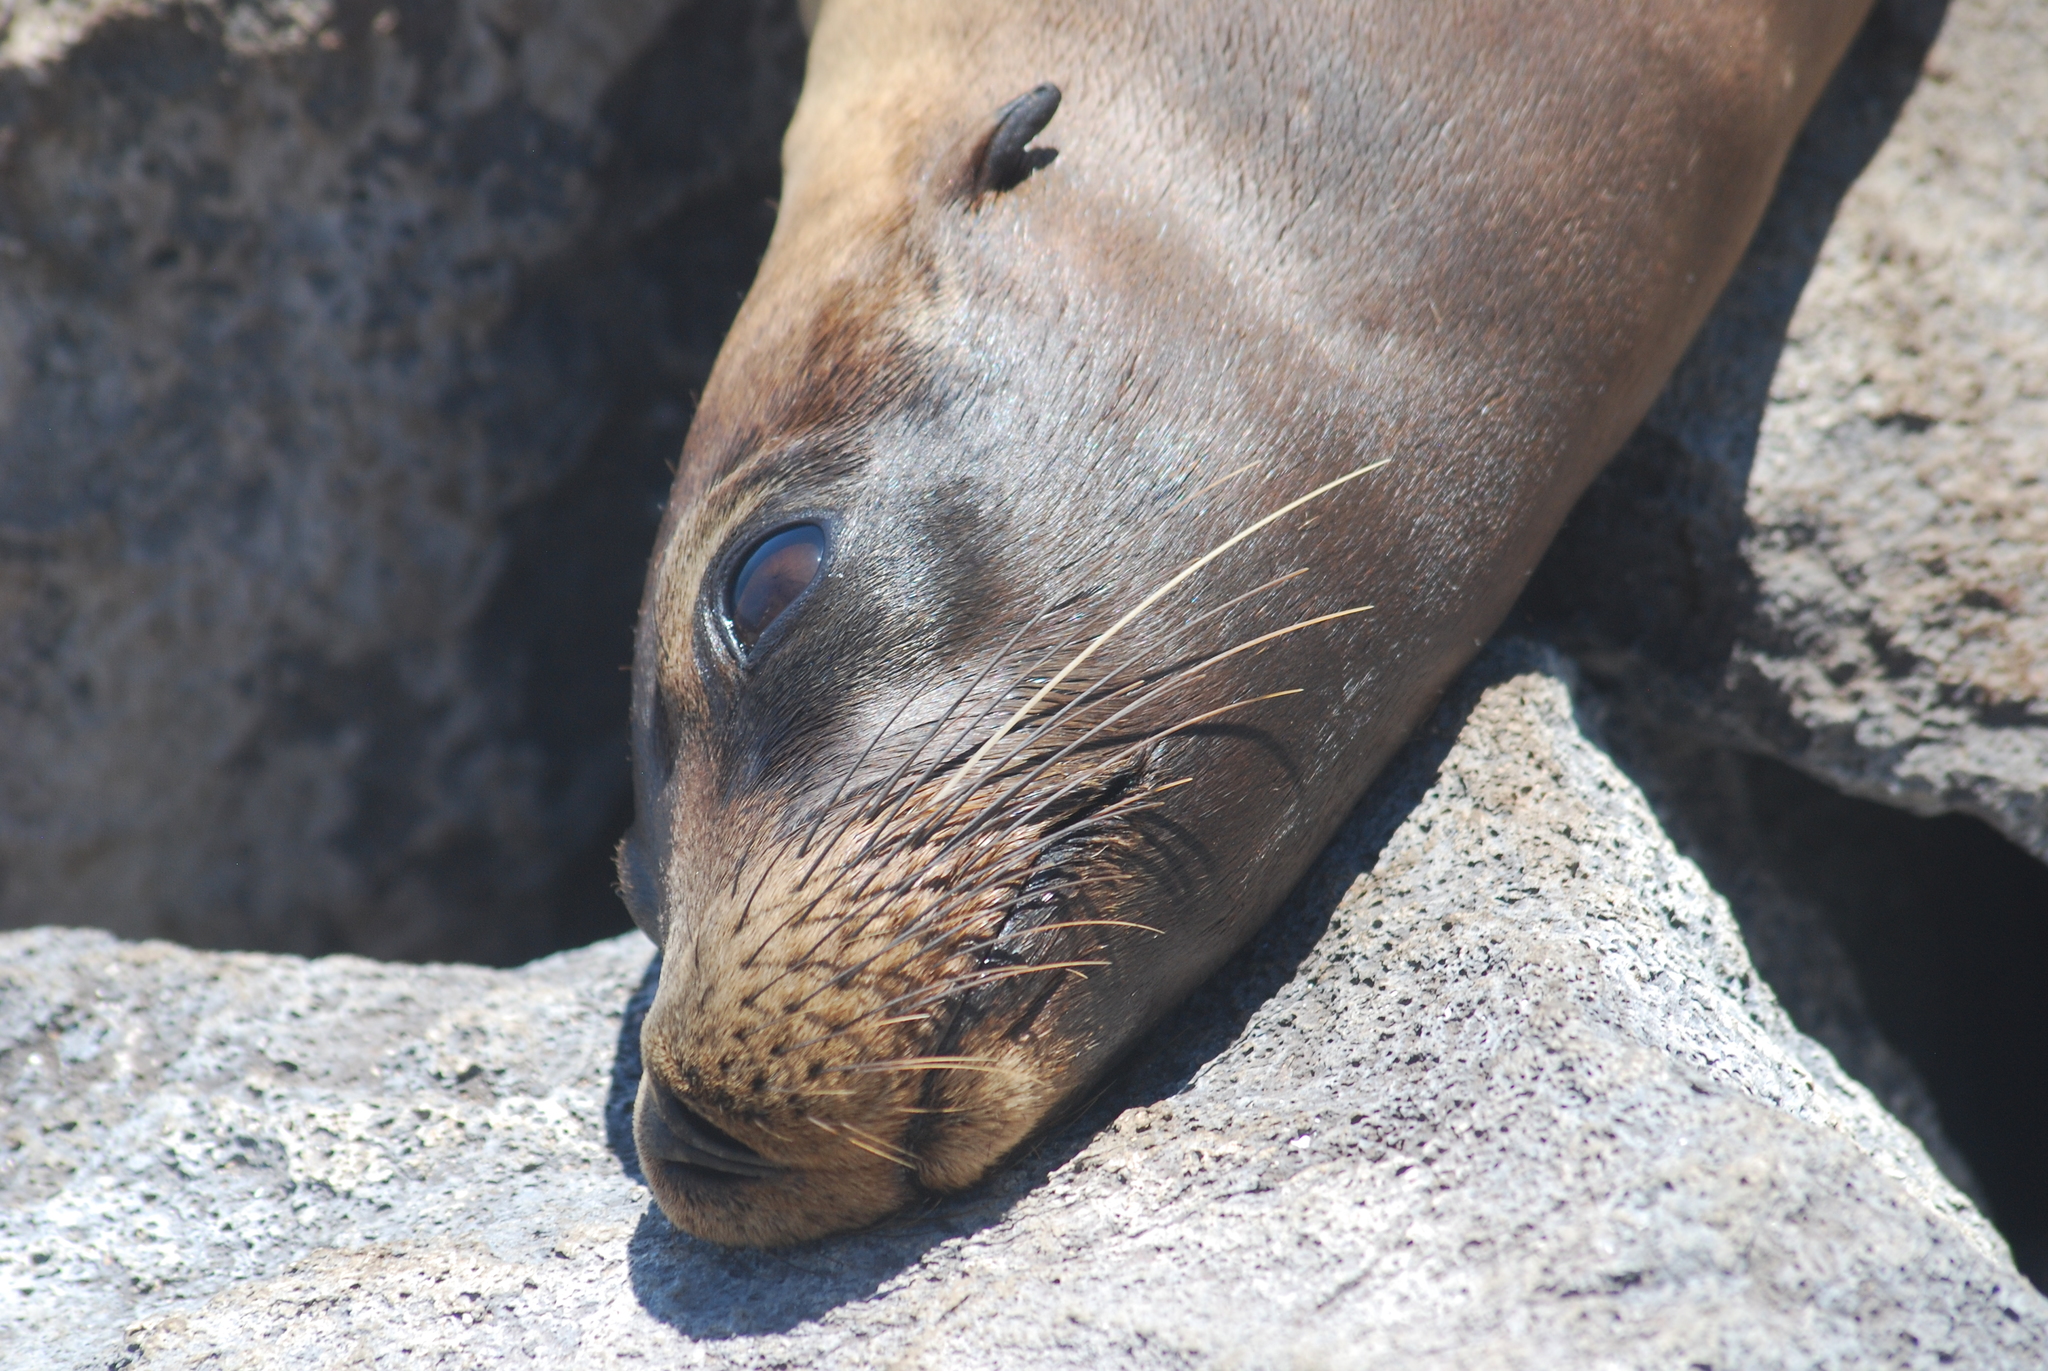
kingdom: Animalia
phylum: Chordata
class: Mammalia
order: Carnivora
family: Otariidae
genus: Zalophus
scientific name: Zalophus wollebaeki
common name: Galapagos sea lion
